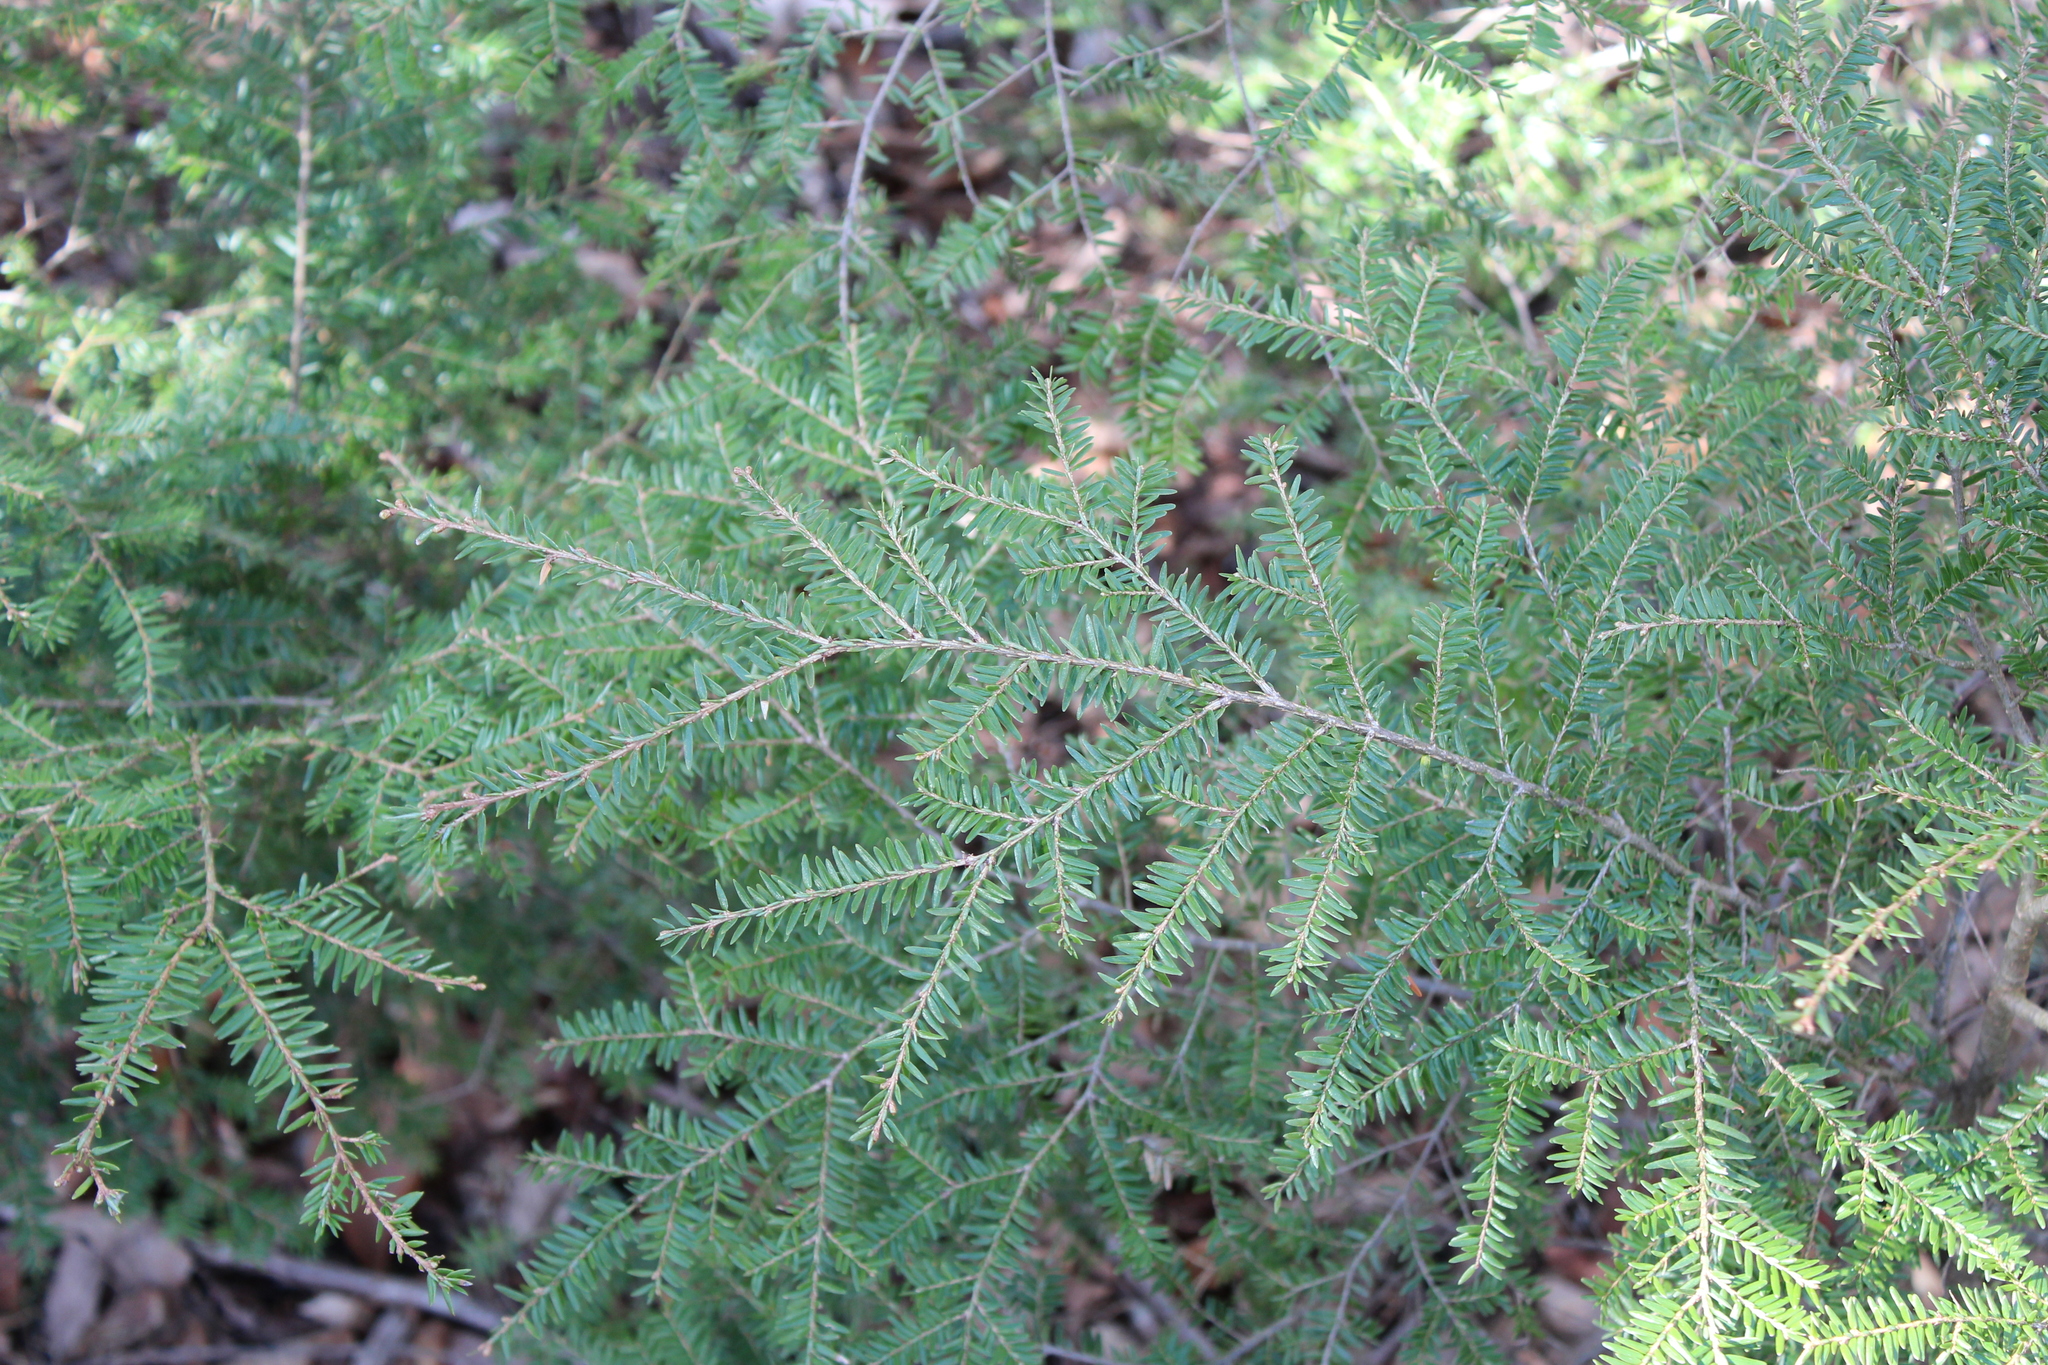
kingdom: Plantae
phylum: Tracheophyta
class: Pinopsida
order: Pinales
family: Pinaceae
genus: Tsuga
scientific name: Tsuga canadensis
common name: Eastern hemlock
